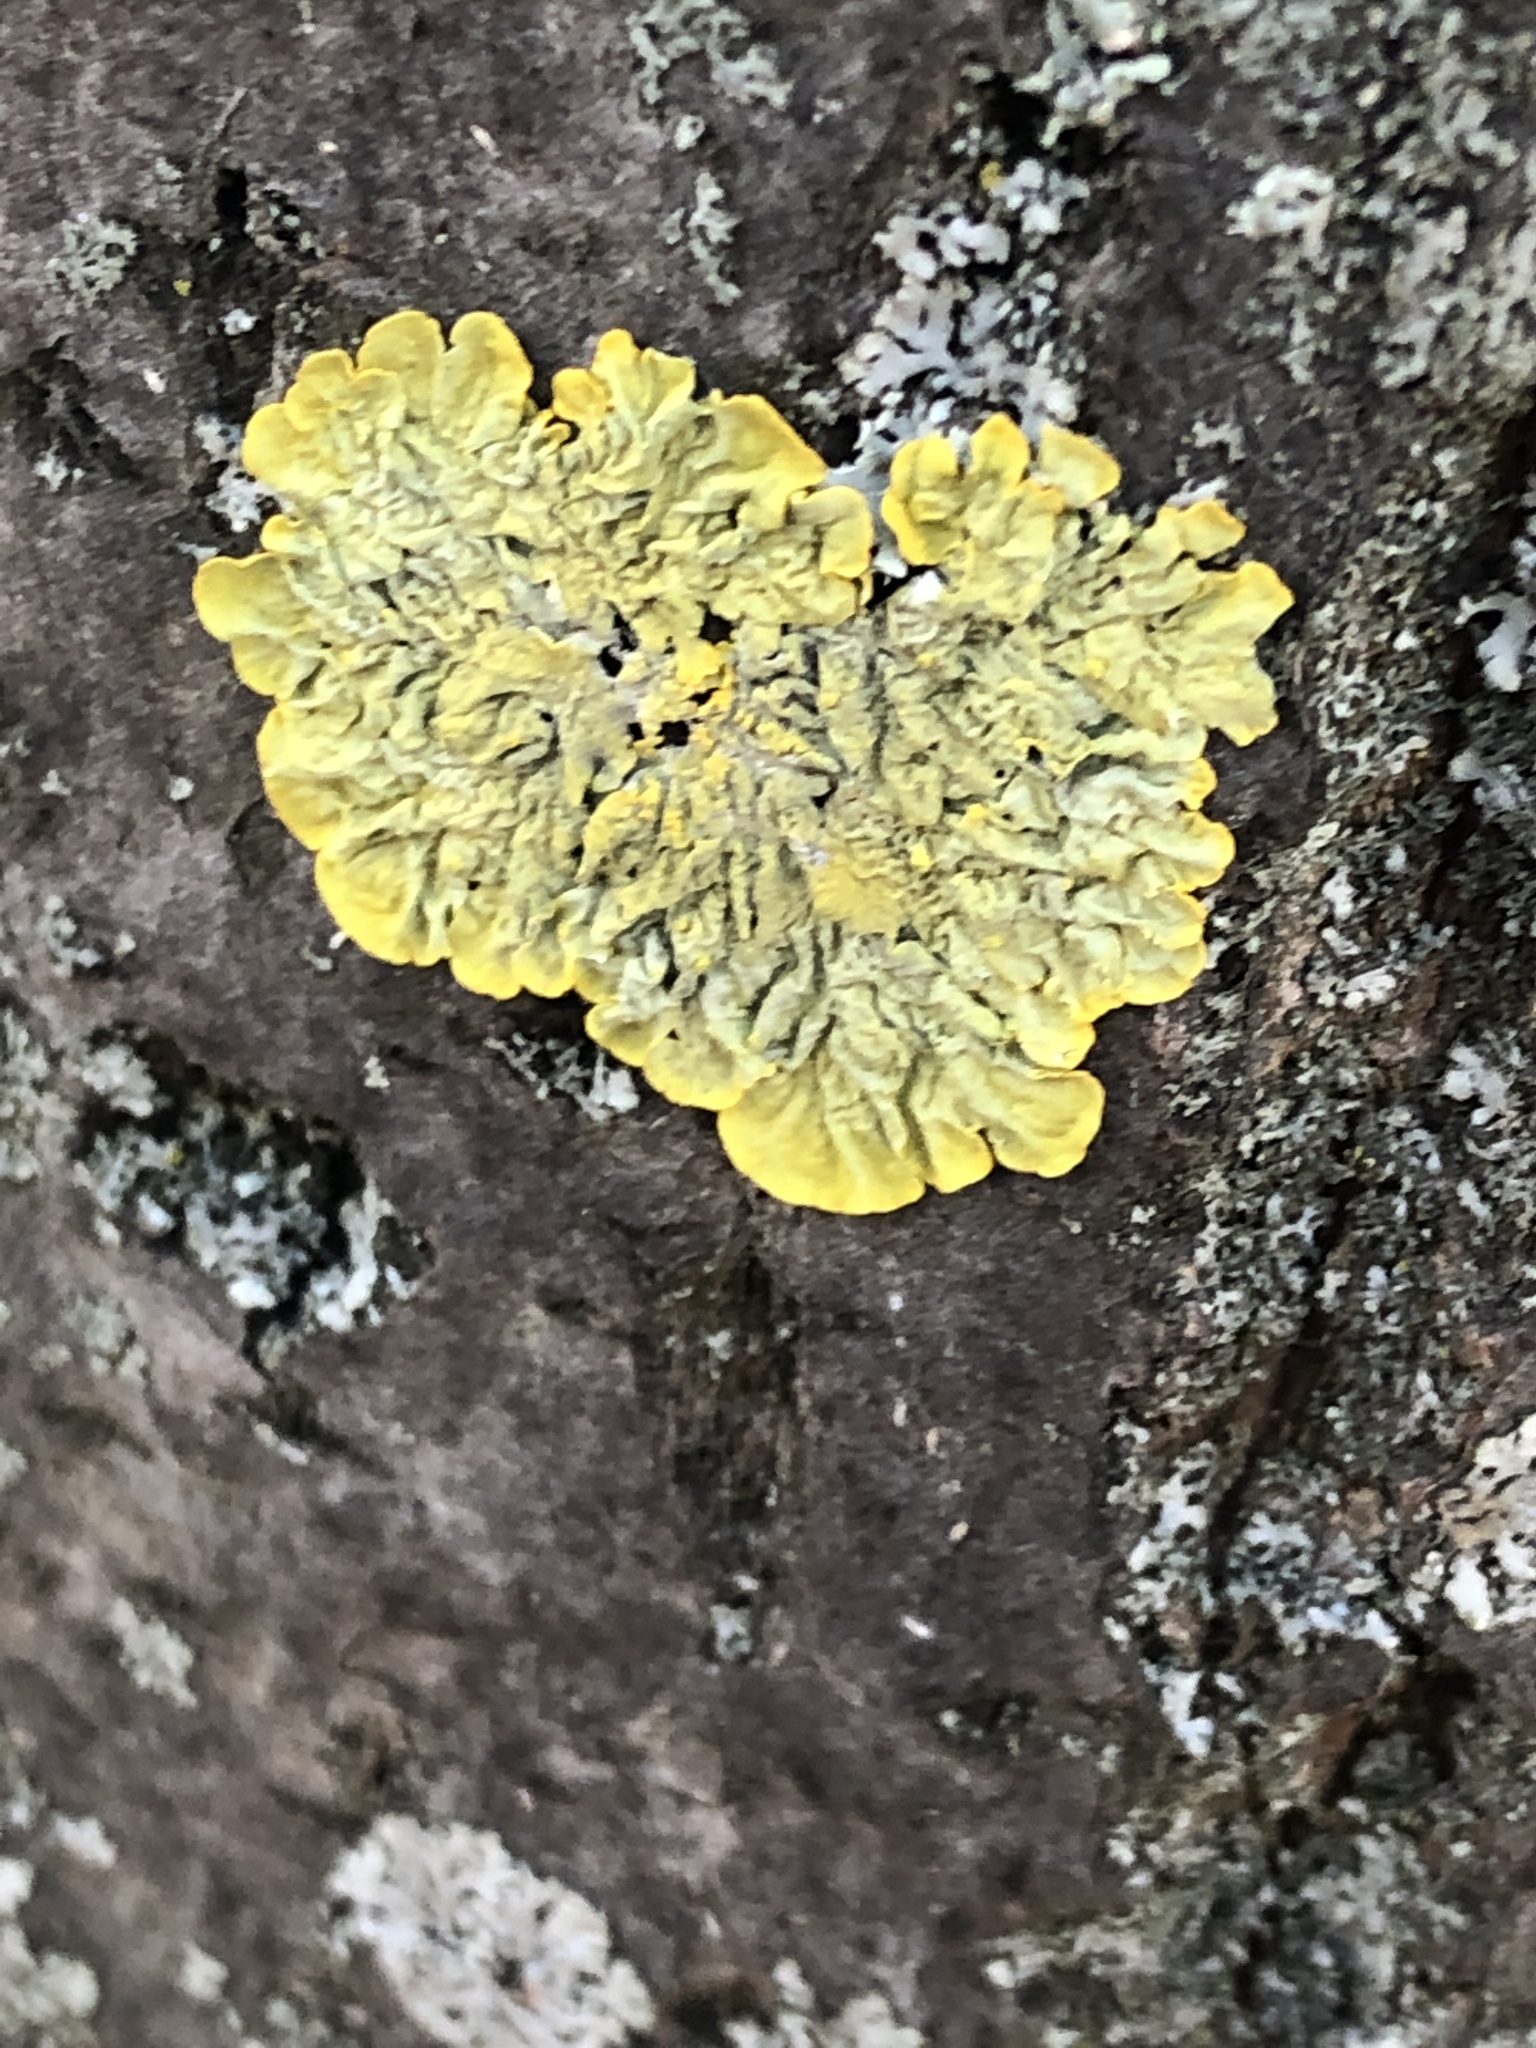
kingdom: Fungi
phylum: Ascomycota
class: Lecanoromycetes
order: Teloschistales
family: Teloschistaceae
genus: Xanthoria
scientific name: Xanthoria parietina
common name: Common orange lichen
